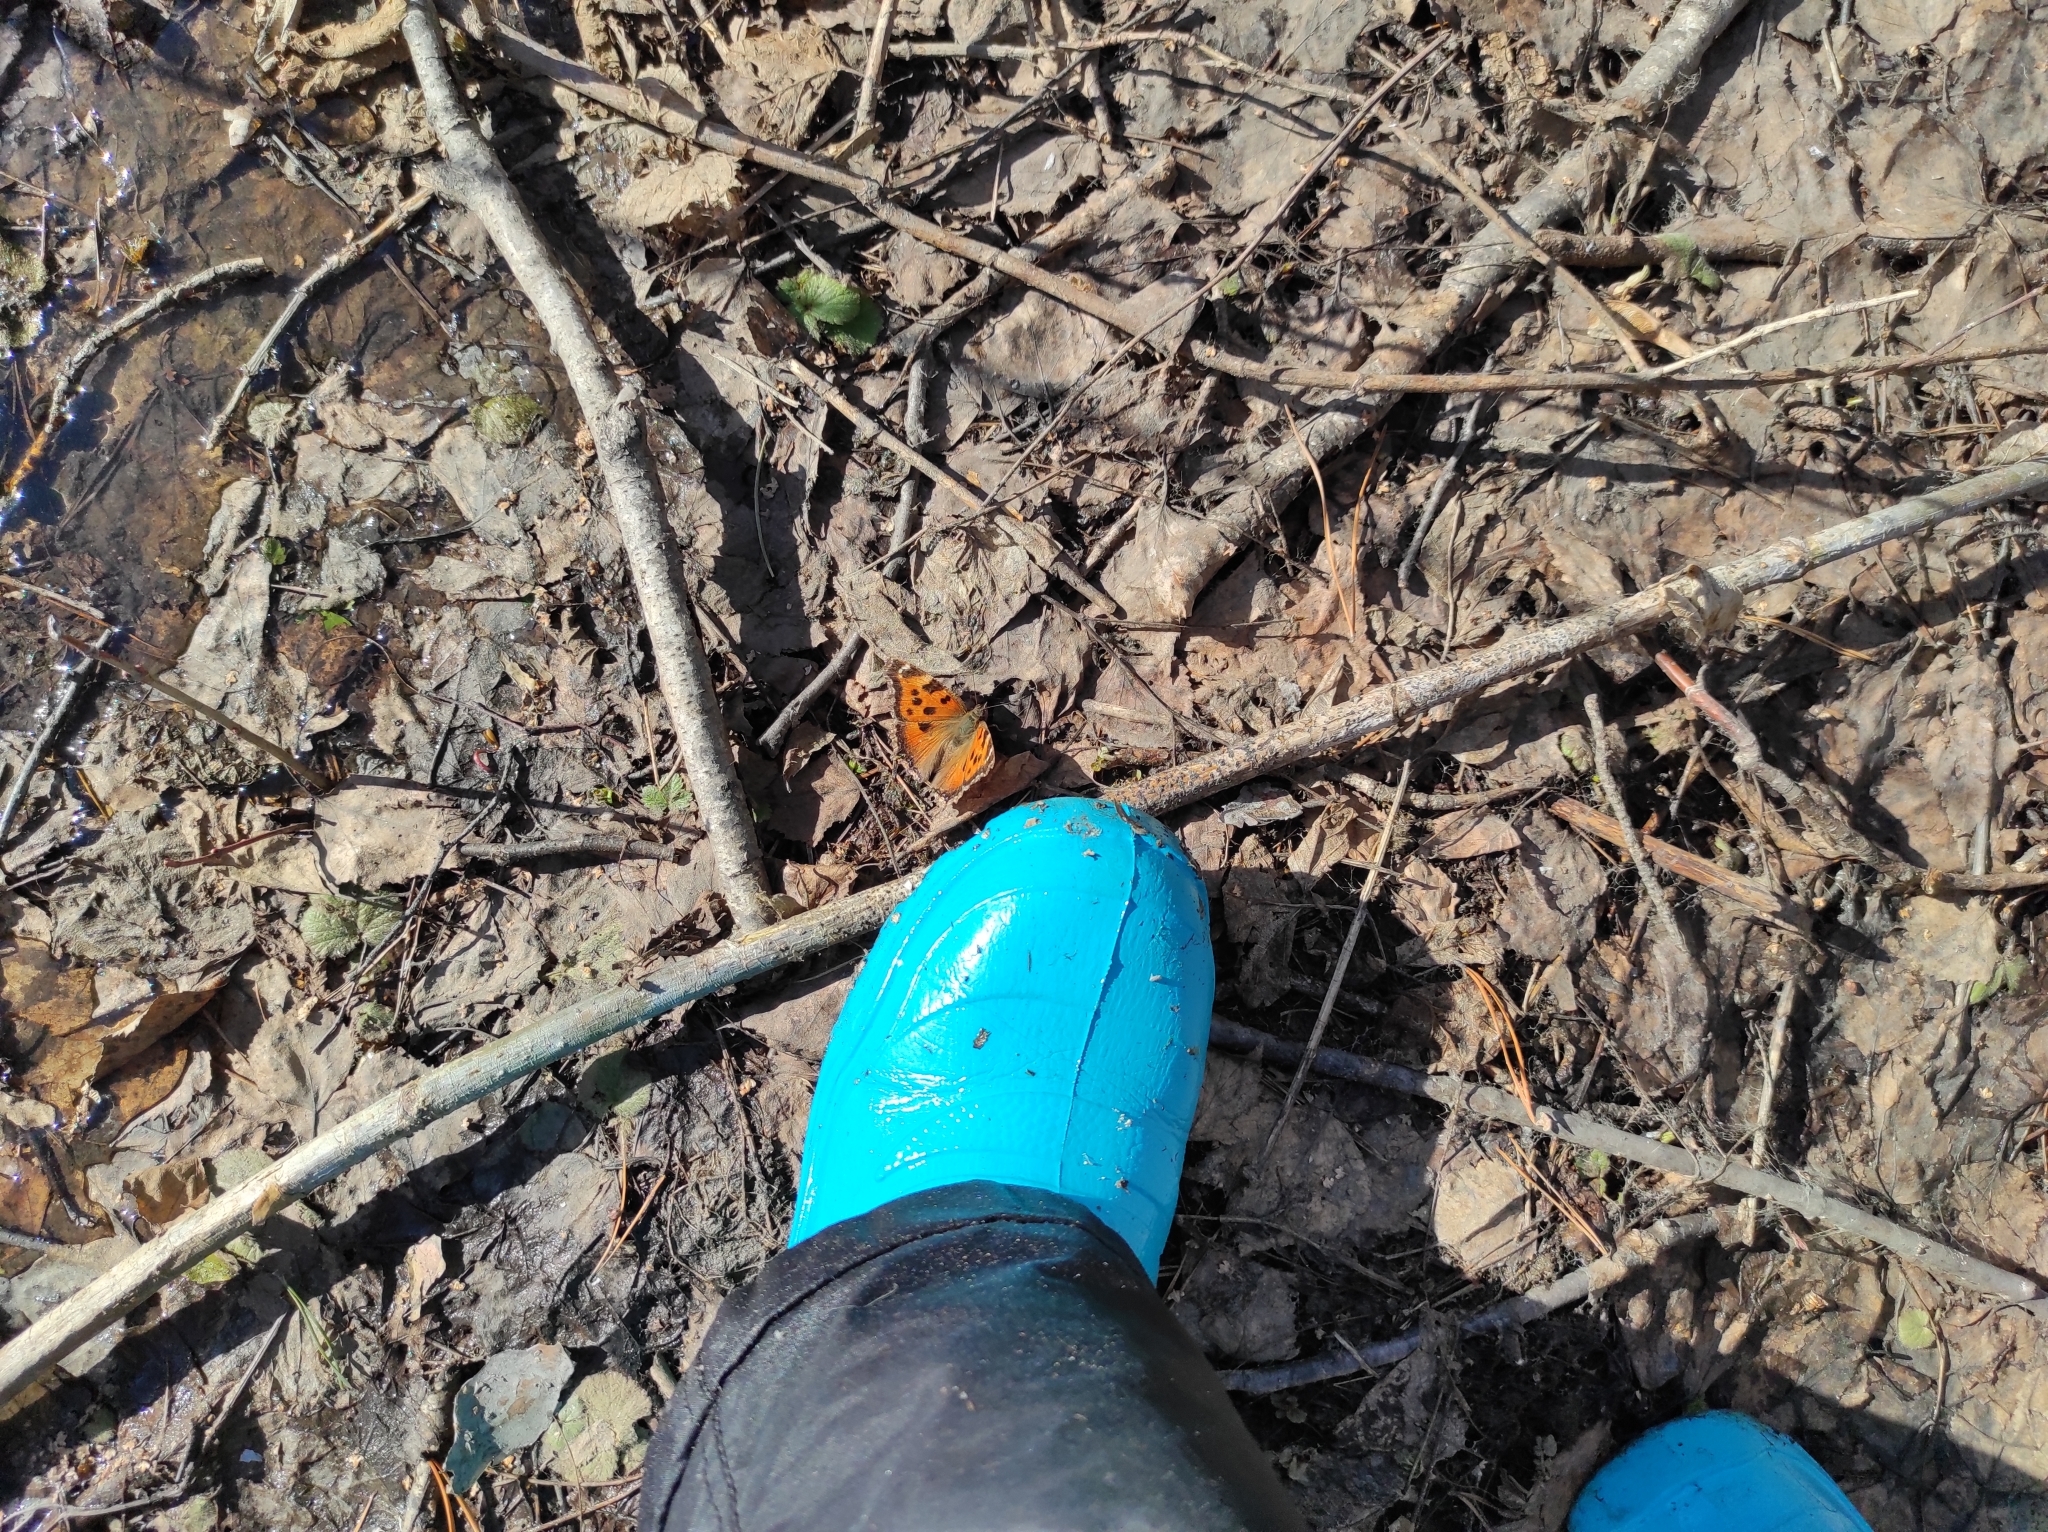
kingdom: Animalia
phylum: Arthropoda
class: Insecta
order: Lepidoptera
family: Nymphalidae
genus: Nymphalis
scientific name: Nymphalis xanthomelas
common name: Scarce tortoiseshell
